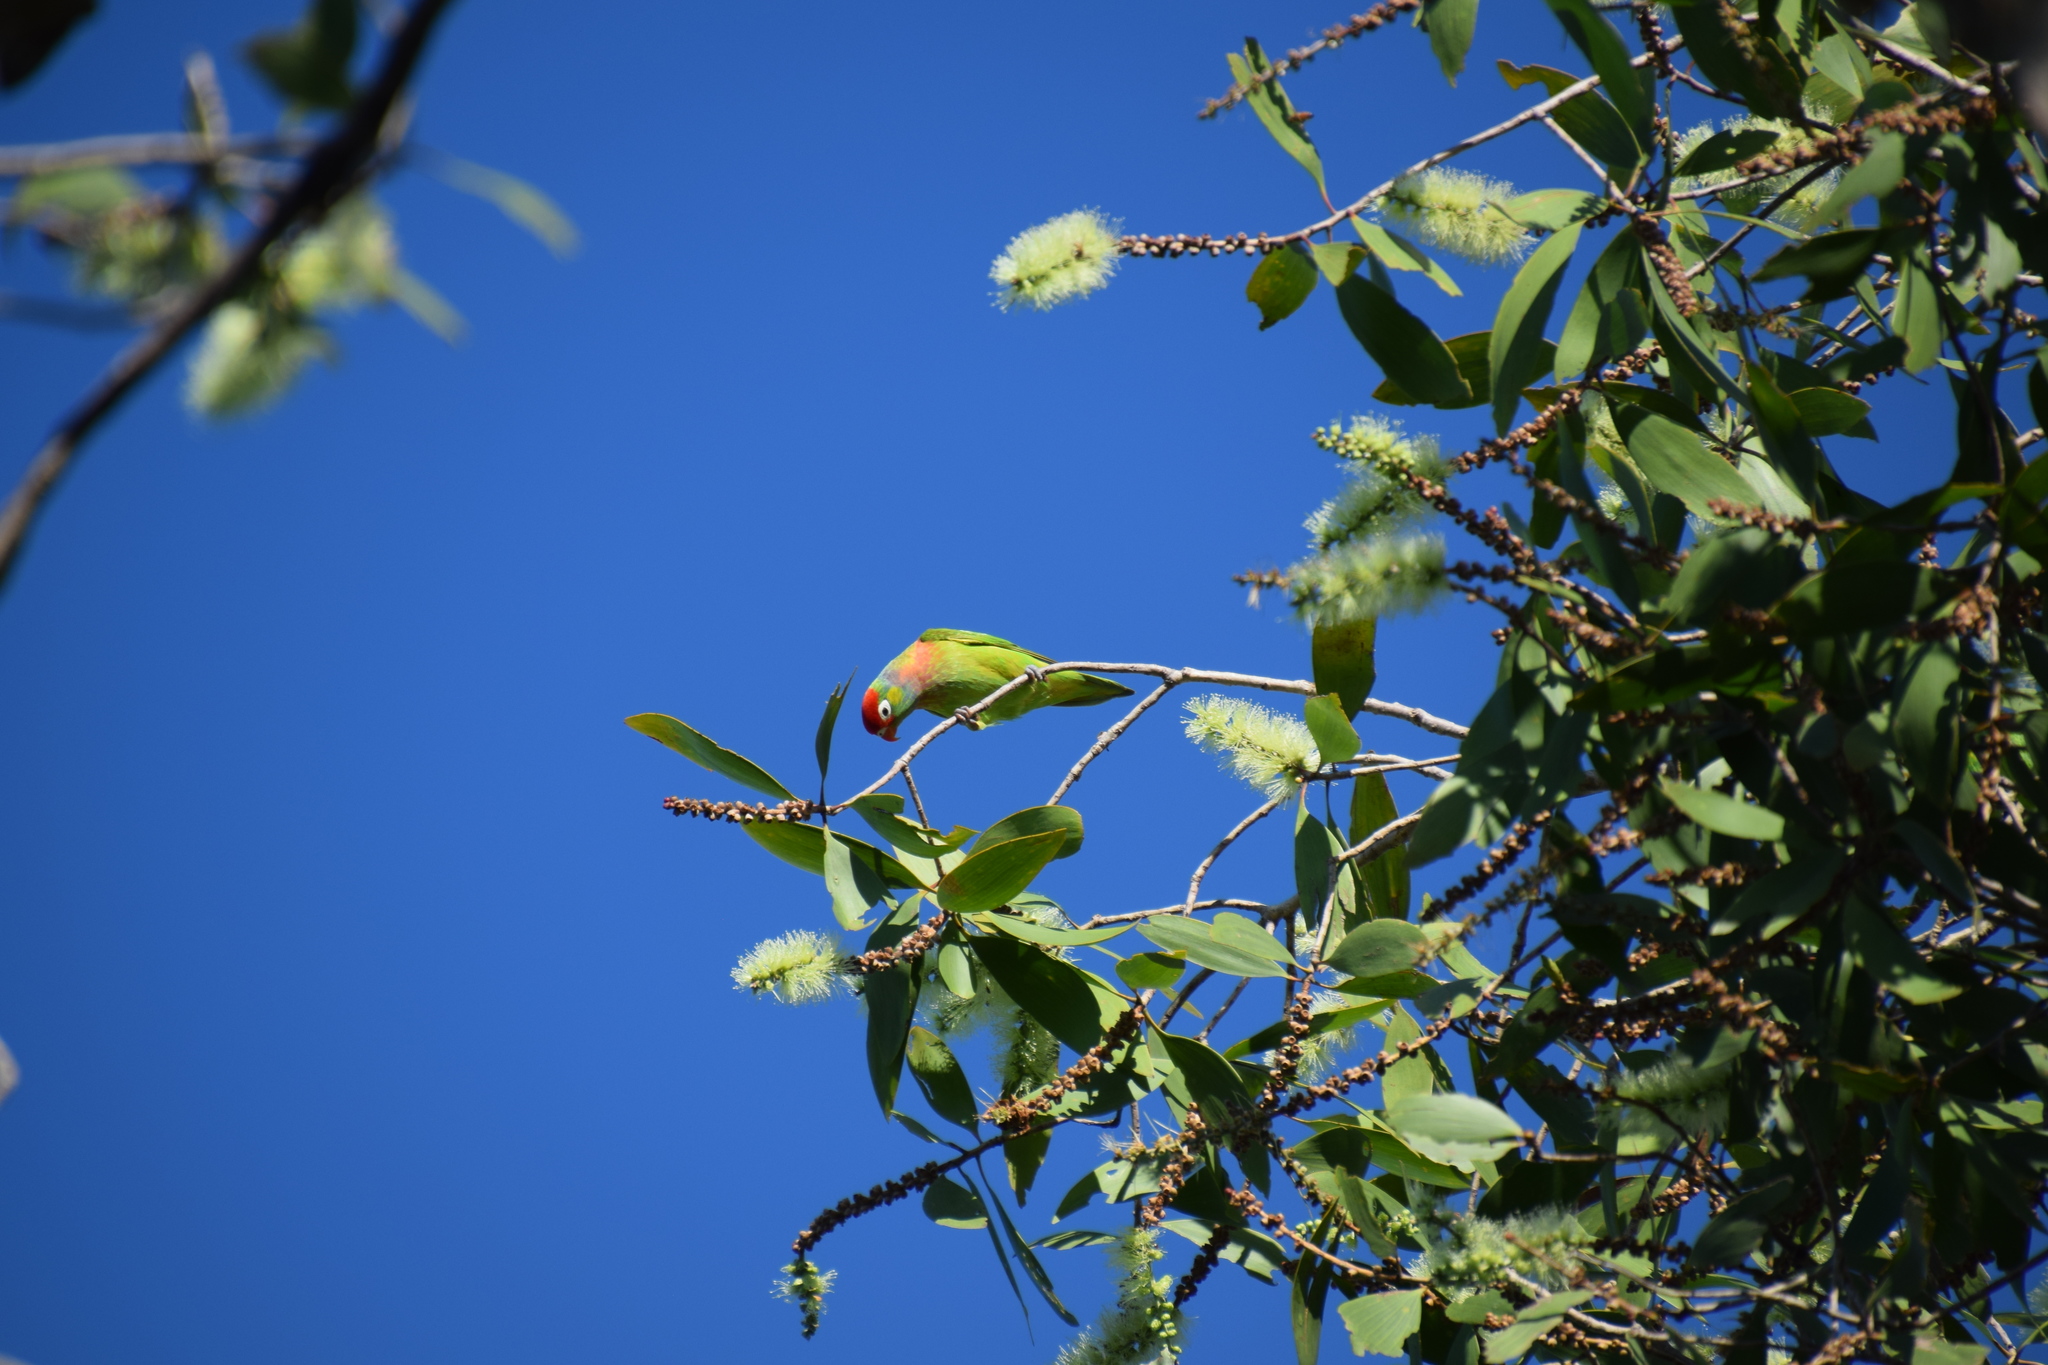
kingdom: Plantae
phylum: Tracheophyta
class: Magnoliopsida
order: Myrtales
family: Myrtaceae
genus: Melaleuca
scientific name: Melaleuca viridiflora
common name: Brown-leaved paperbark
